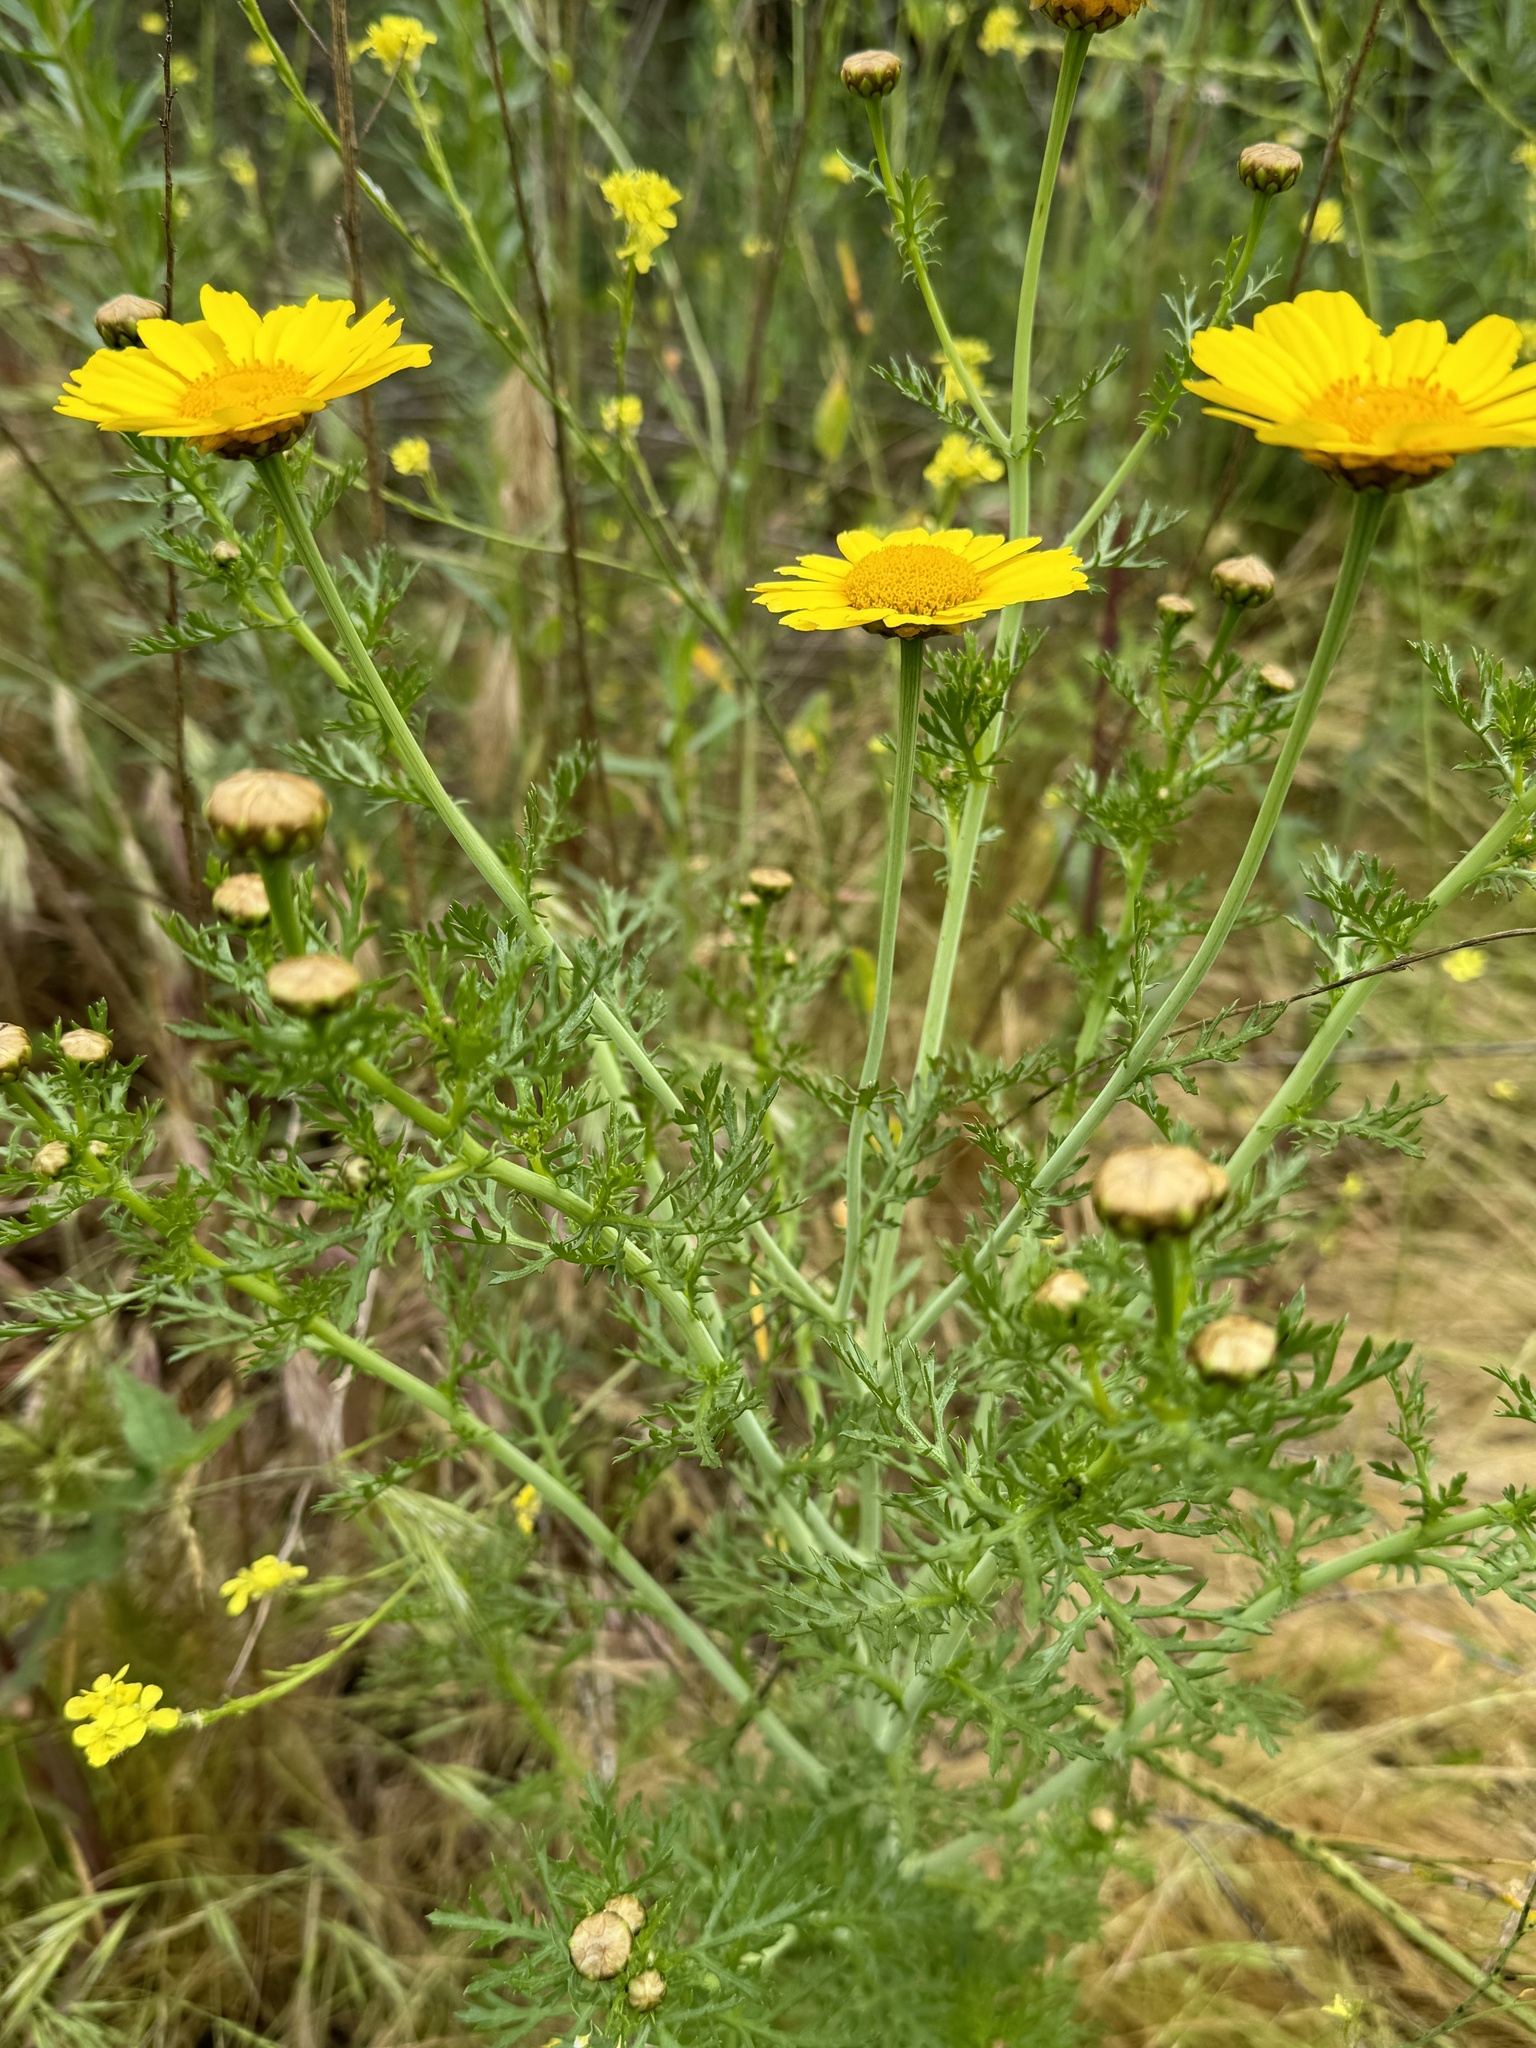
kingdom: Plantae
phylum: Tracheophyta
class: Magnoliopsida
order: Asterales
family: Asteraceae
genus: Glebionis
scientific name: Glebionis coronaria
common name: Crowndaisy
